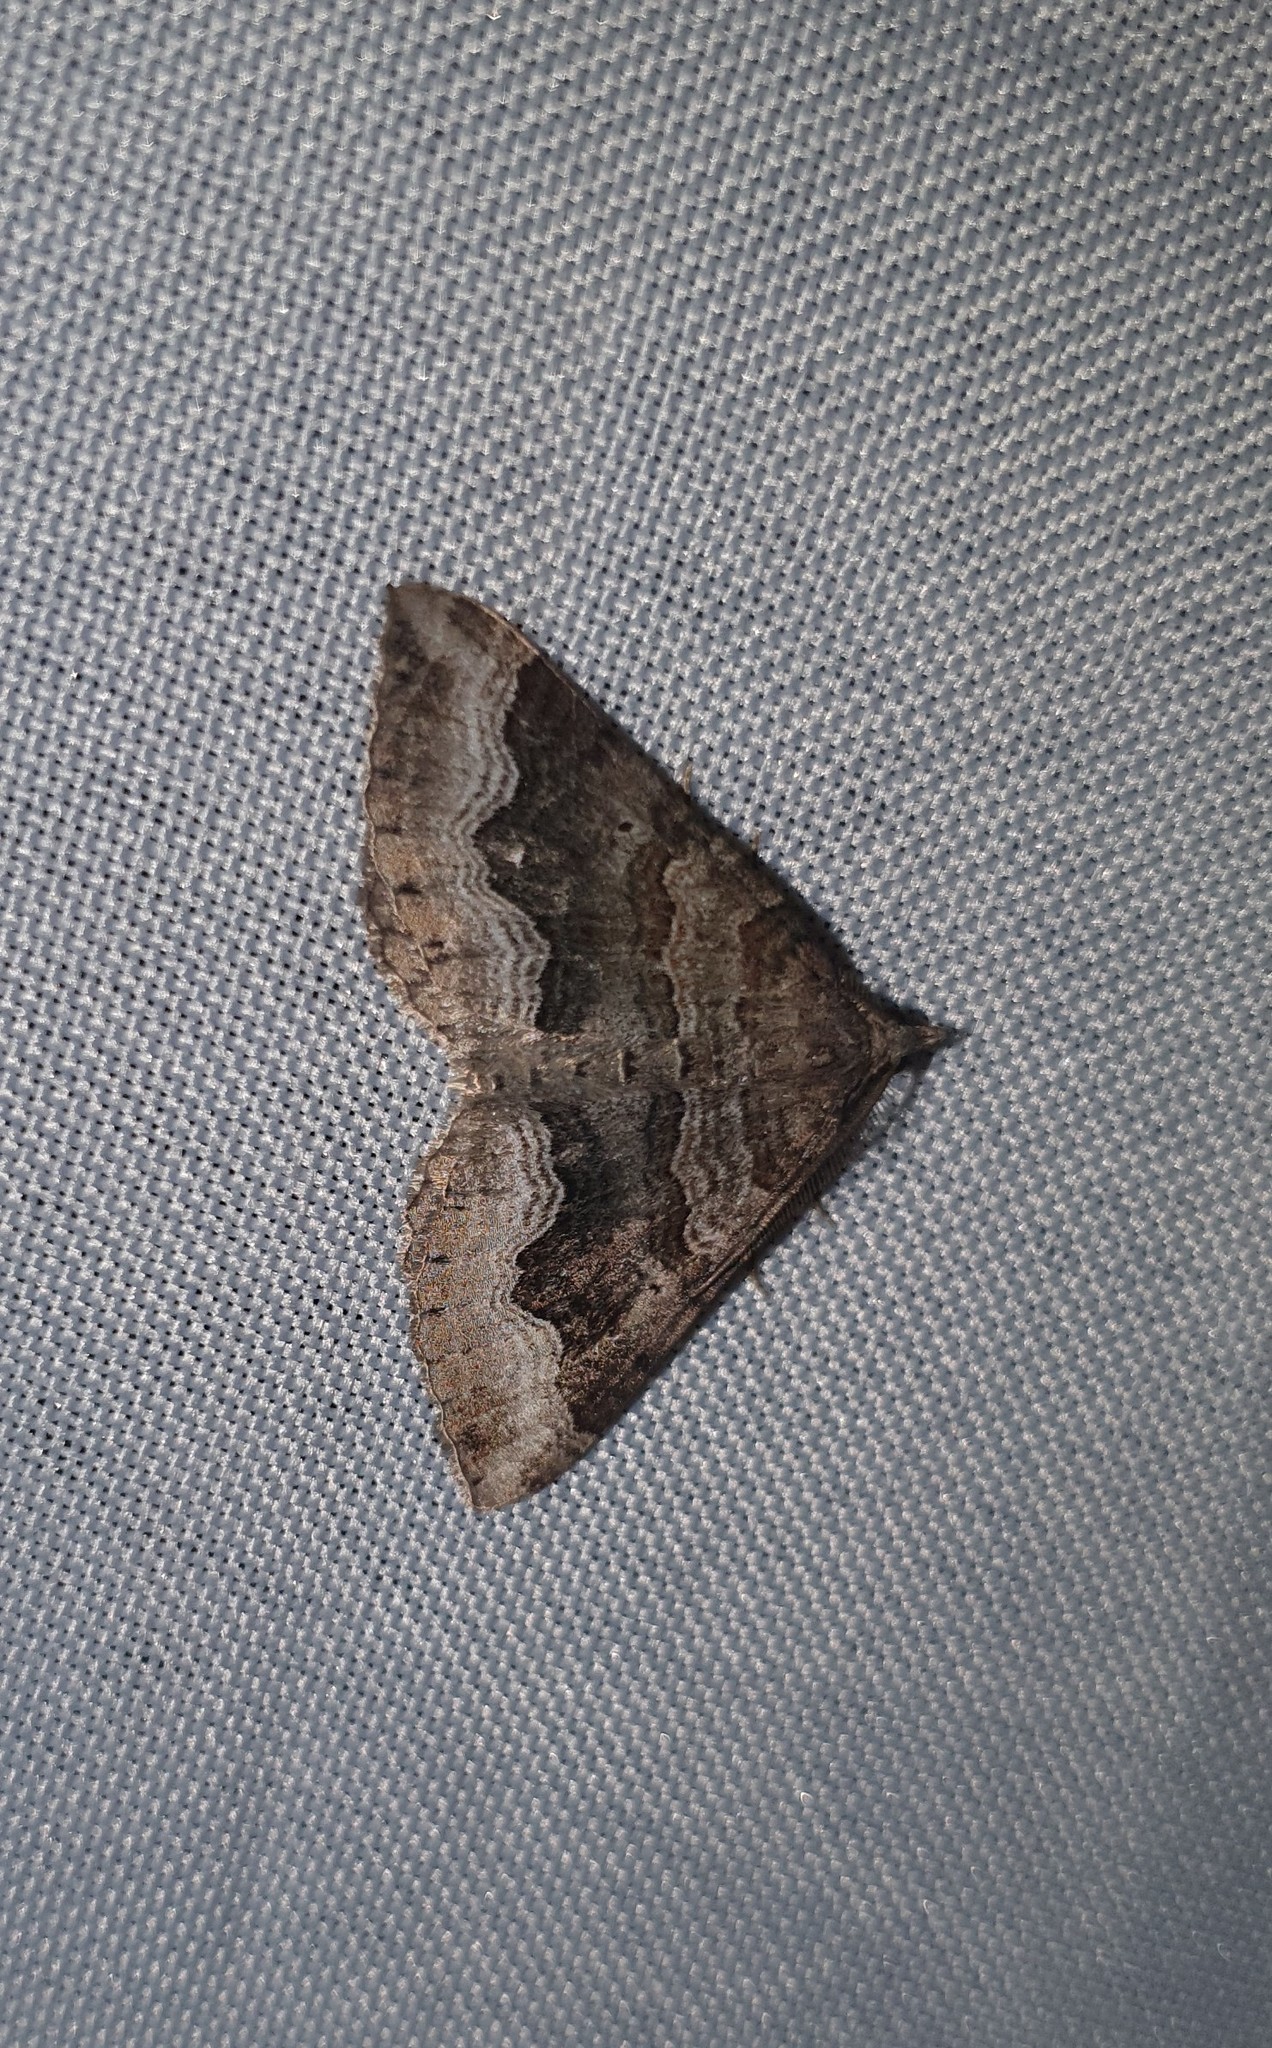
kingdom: Animalia
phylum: Arthropoda
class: Insecta
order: Lepidoptera
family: Geometridae
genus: Scotopteryx
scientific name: Scotopteryx coelinaria
